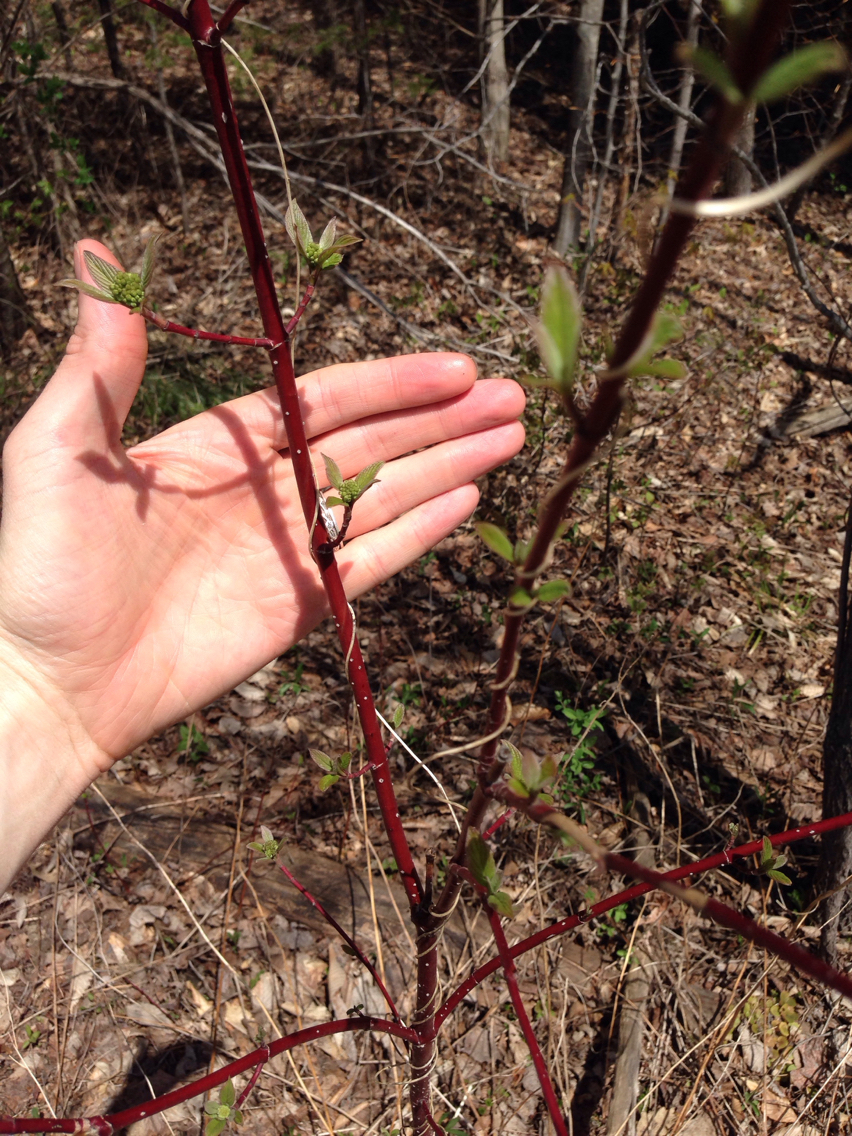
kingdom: Plantae
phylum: Tracheophyta
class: Magnoliopsida
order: Cornales
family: Cornaceae
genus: Cornus
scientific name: Cornus sericea
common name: Red-osier dogwood
